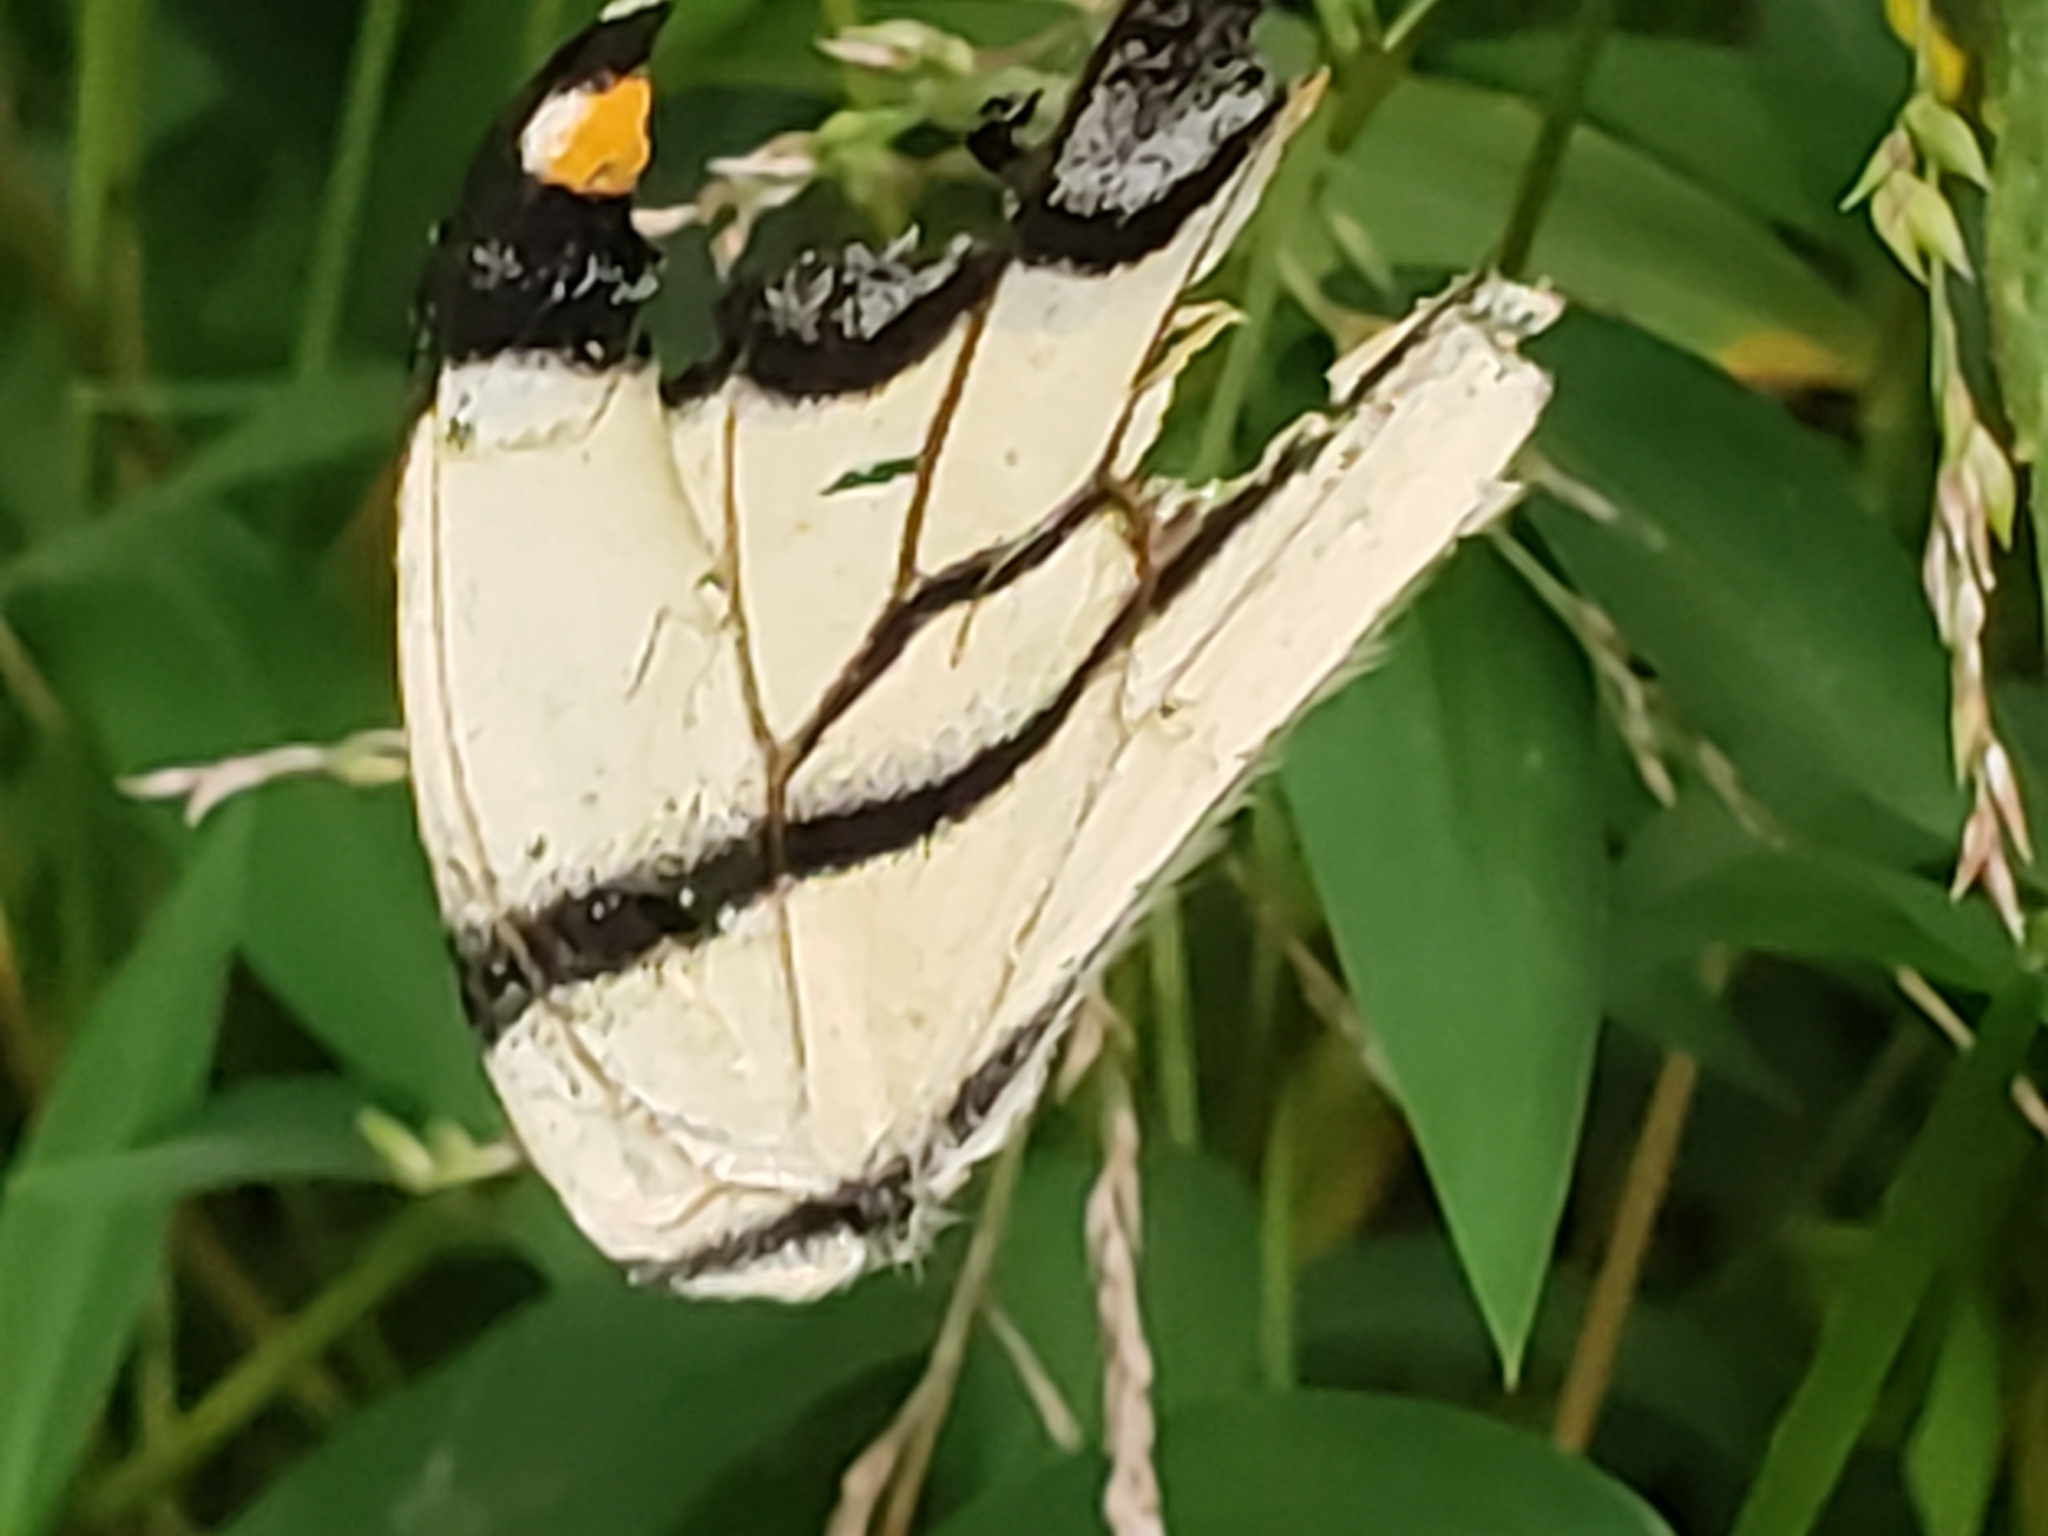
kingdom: Animalia
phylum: Arthropoda
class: Insecta
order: Lepidoptera
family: Papilionidae
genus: Papilio
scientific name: Papilio glaucus
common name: Tiger swallowtail
